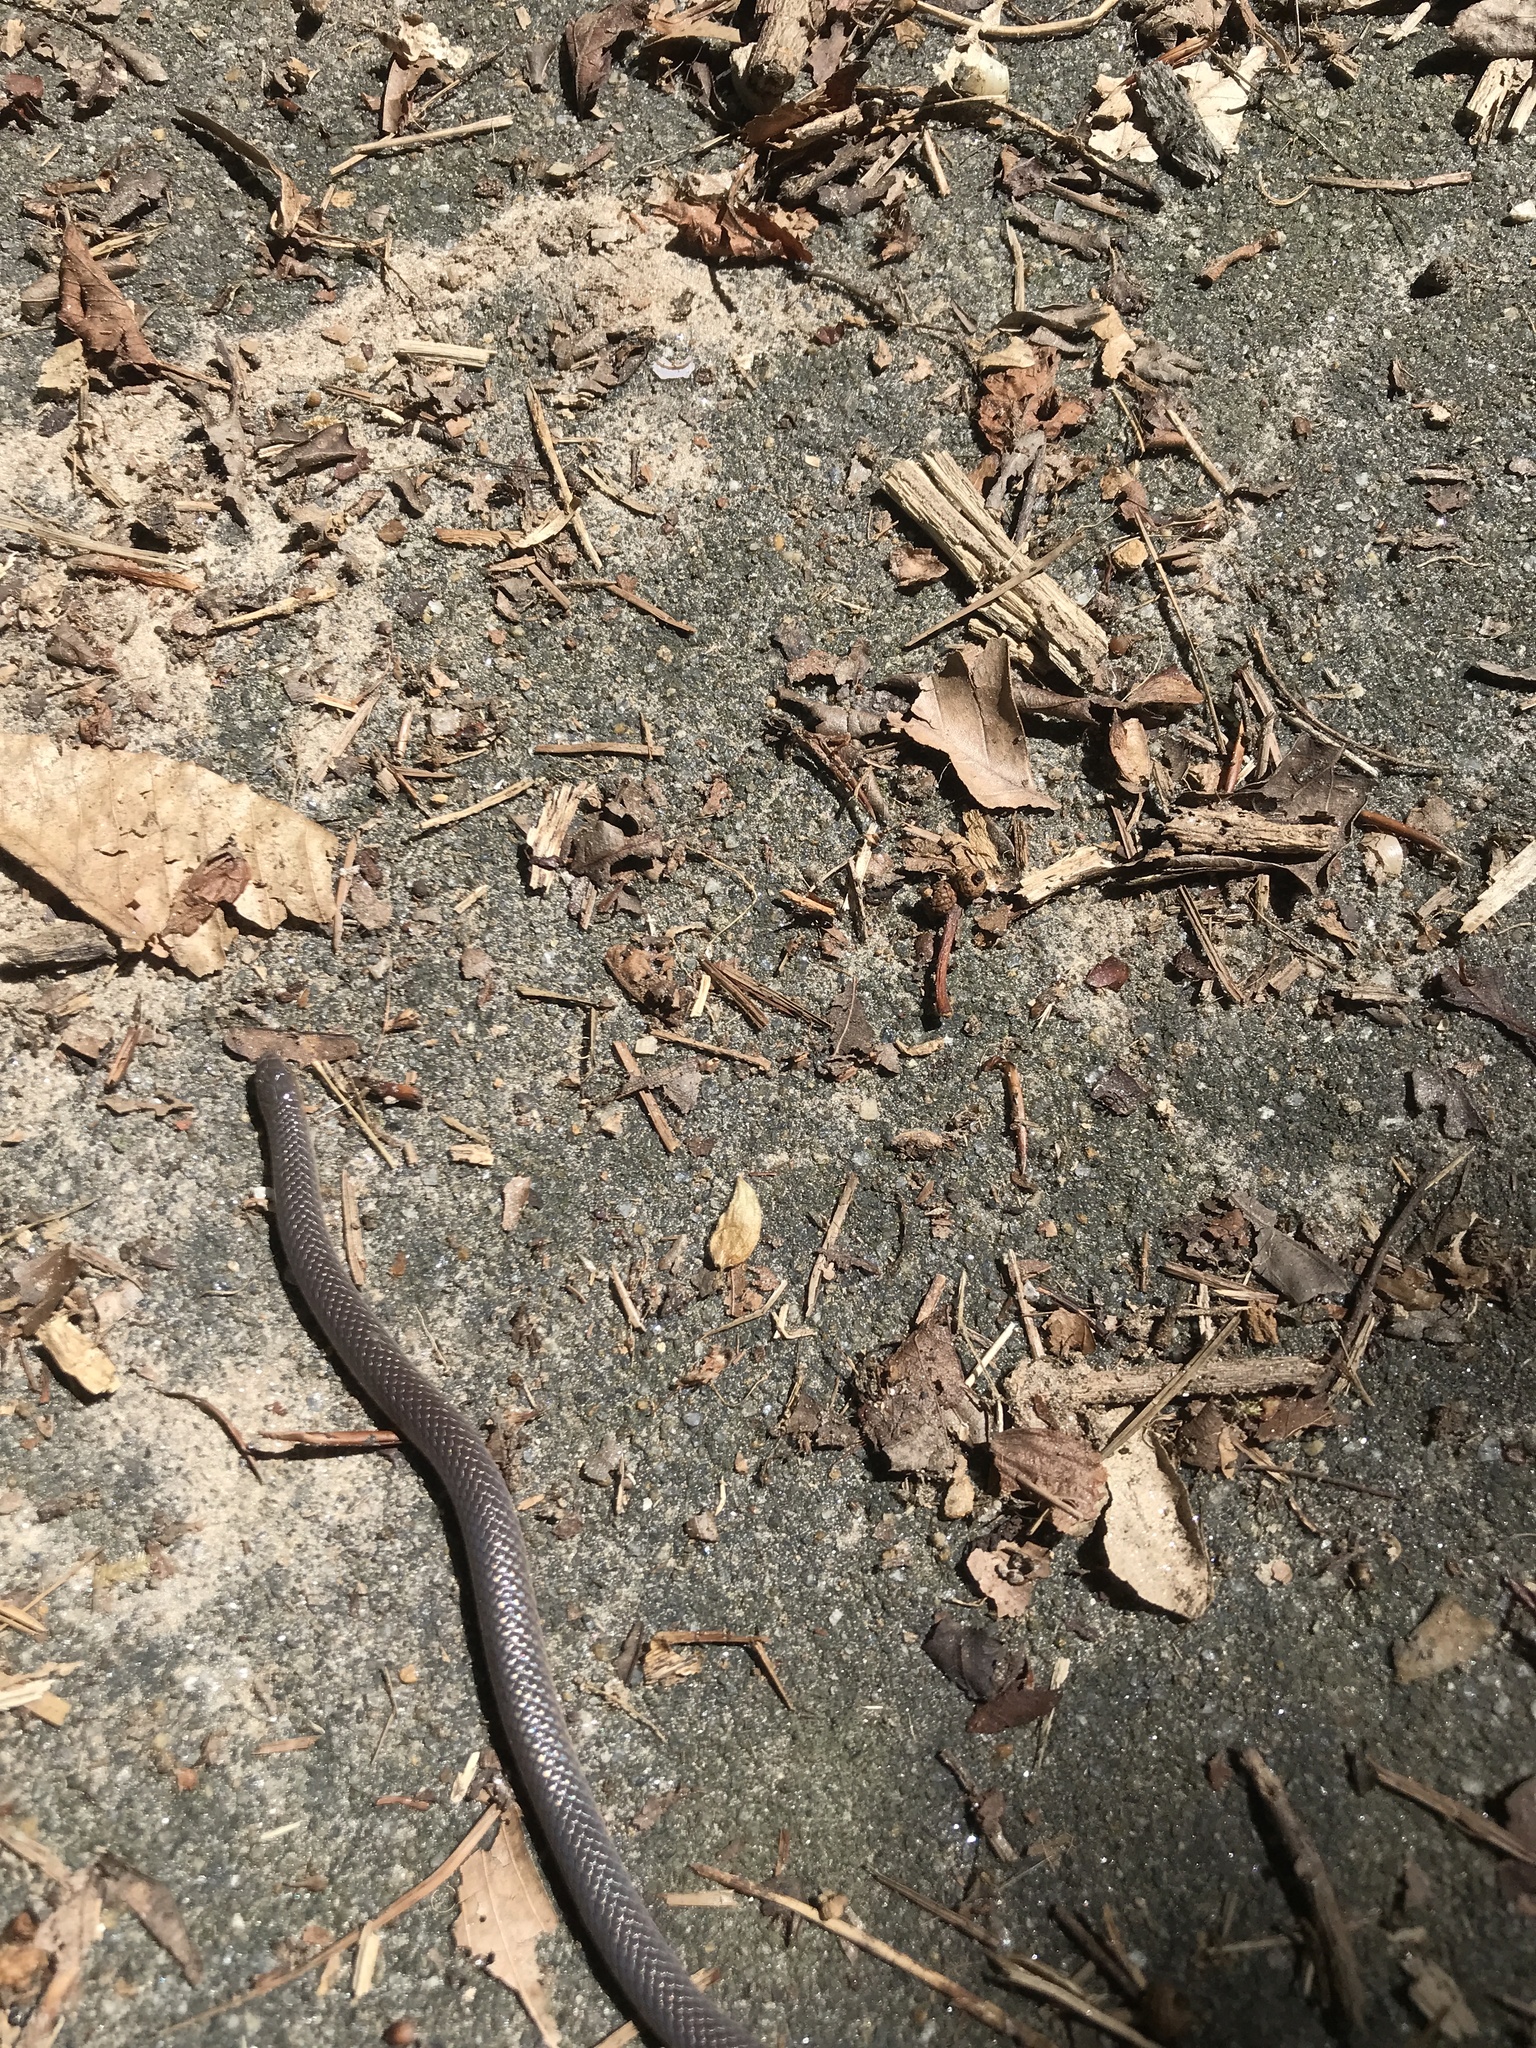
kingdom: Animalia
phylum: Chordata
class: Squamata
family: Colubridae
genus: Carphophis
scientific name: Carphophis amoenus
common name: Eastern worm snake
